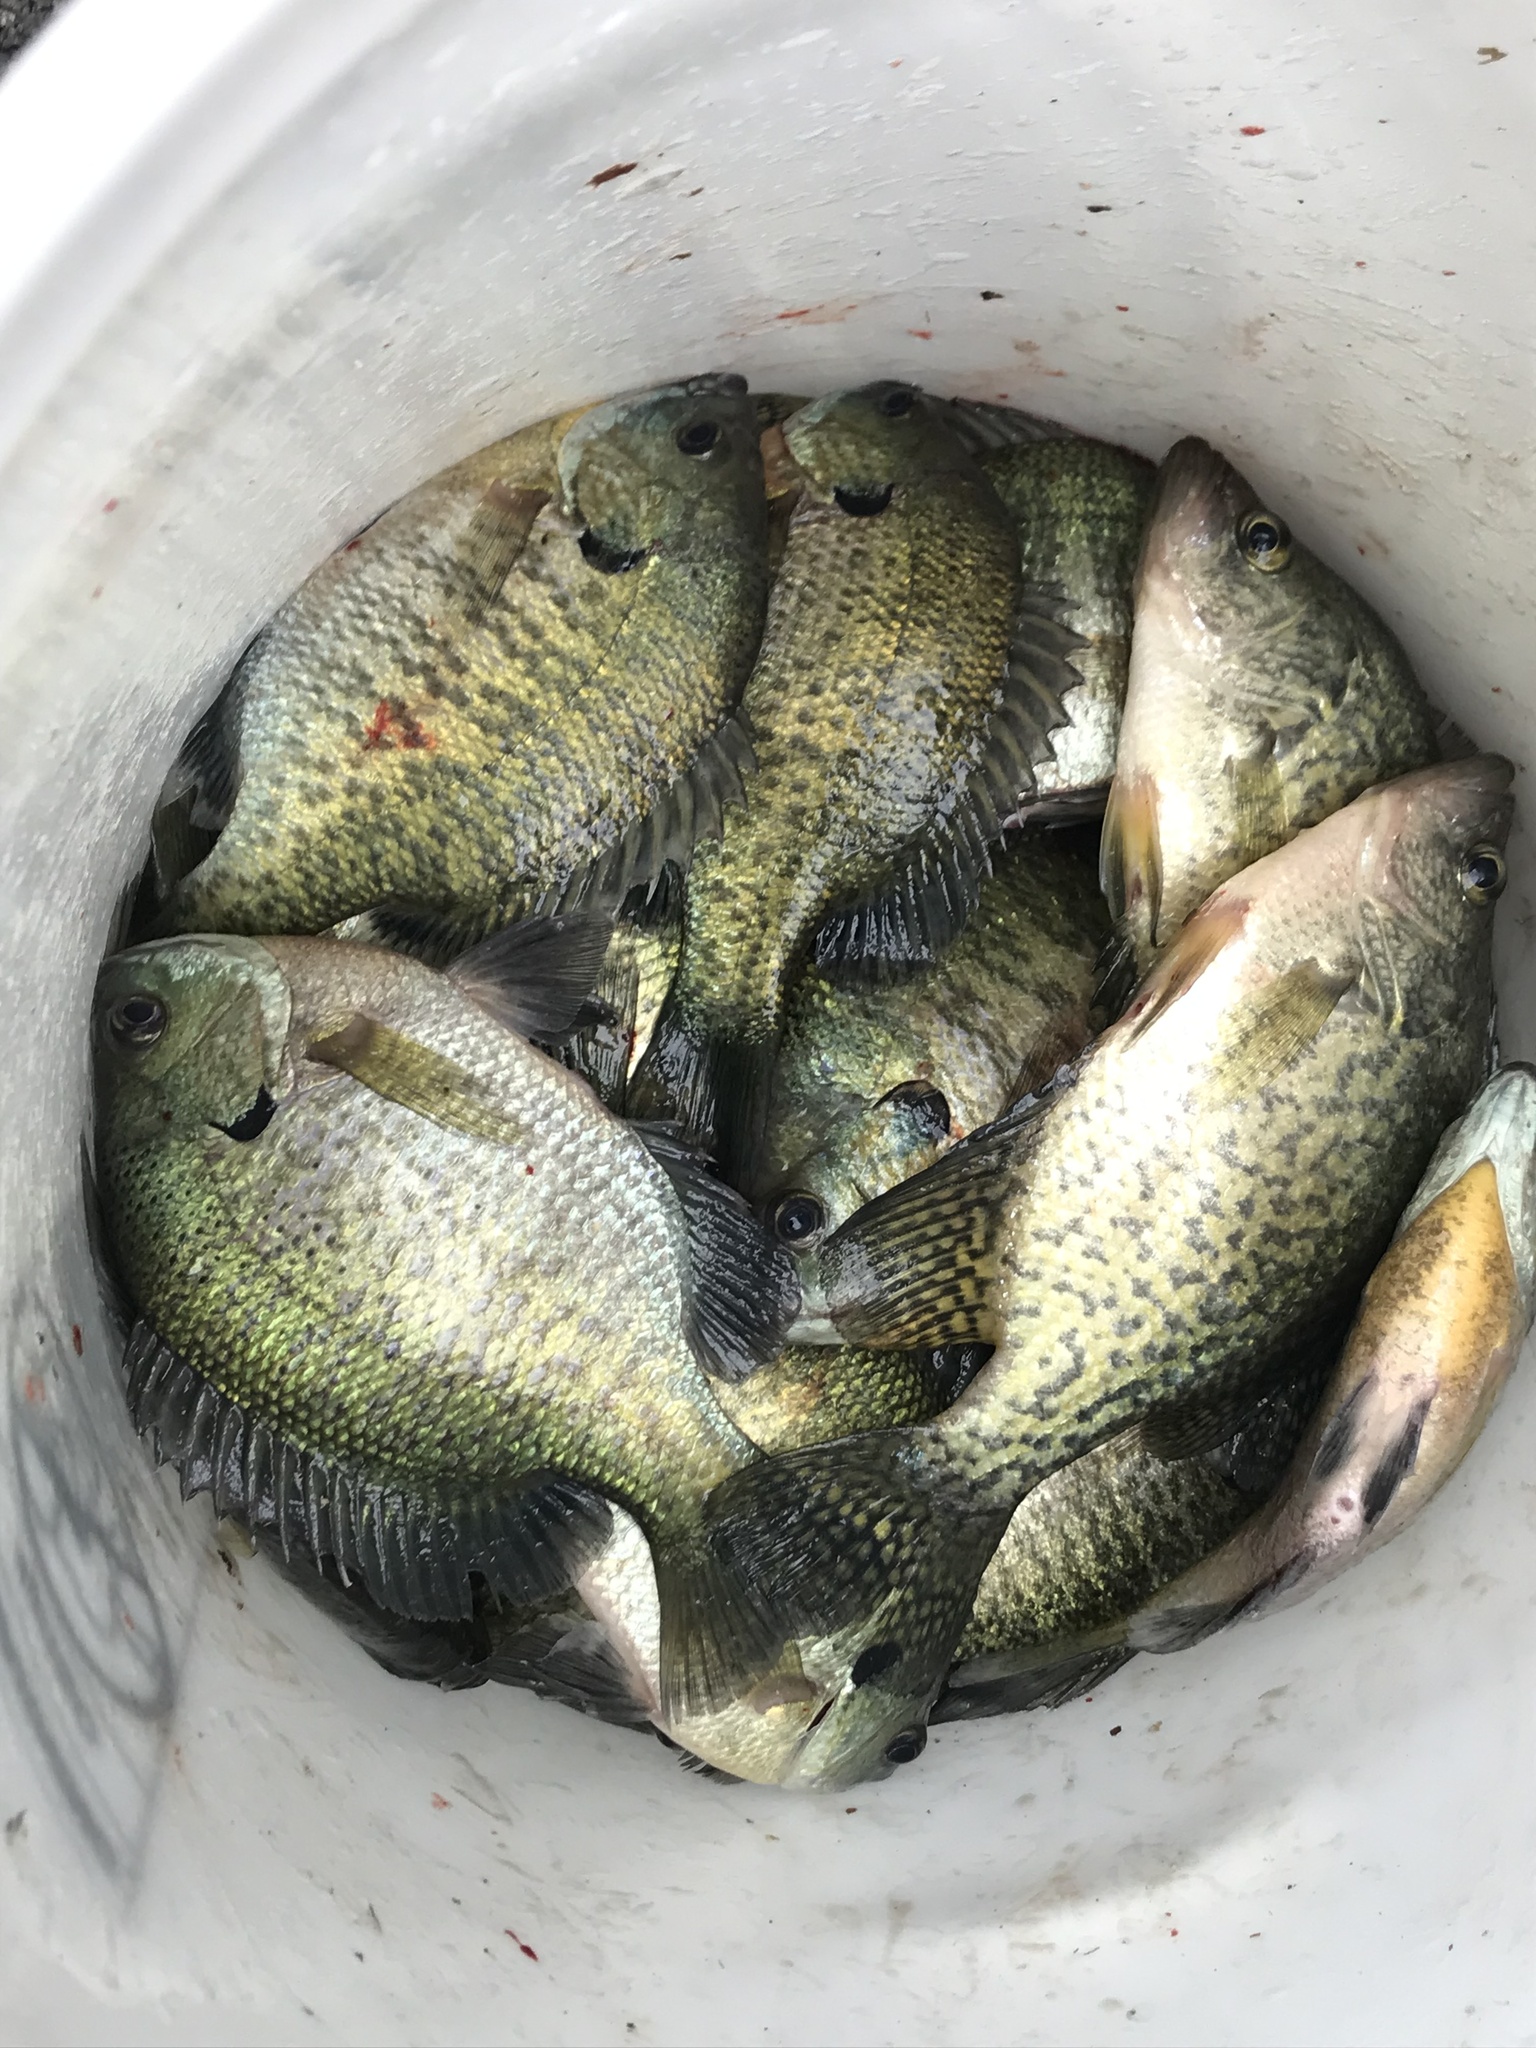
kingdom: Animalia
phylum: Chordata
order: Perciformes
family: Centrarchidae
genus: Pomoxis
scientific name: Pomoxis nigromaculatus
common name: Black crappie
